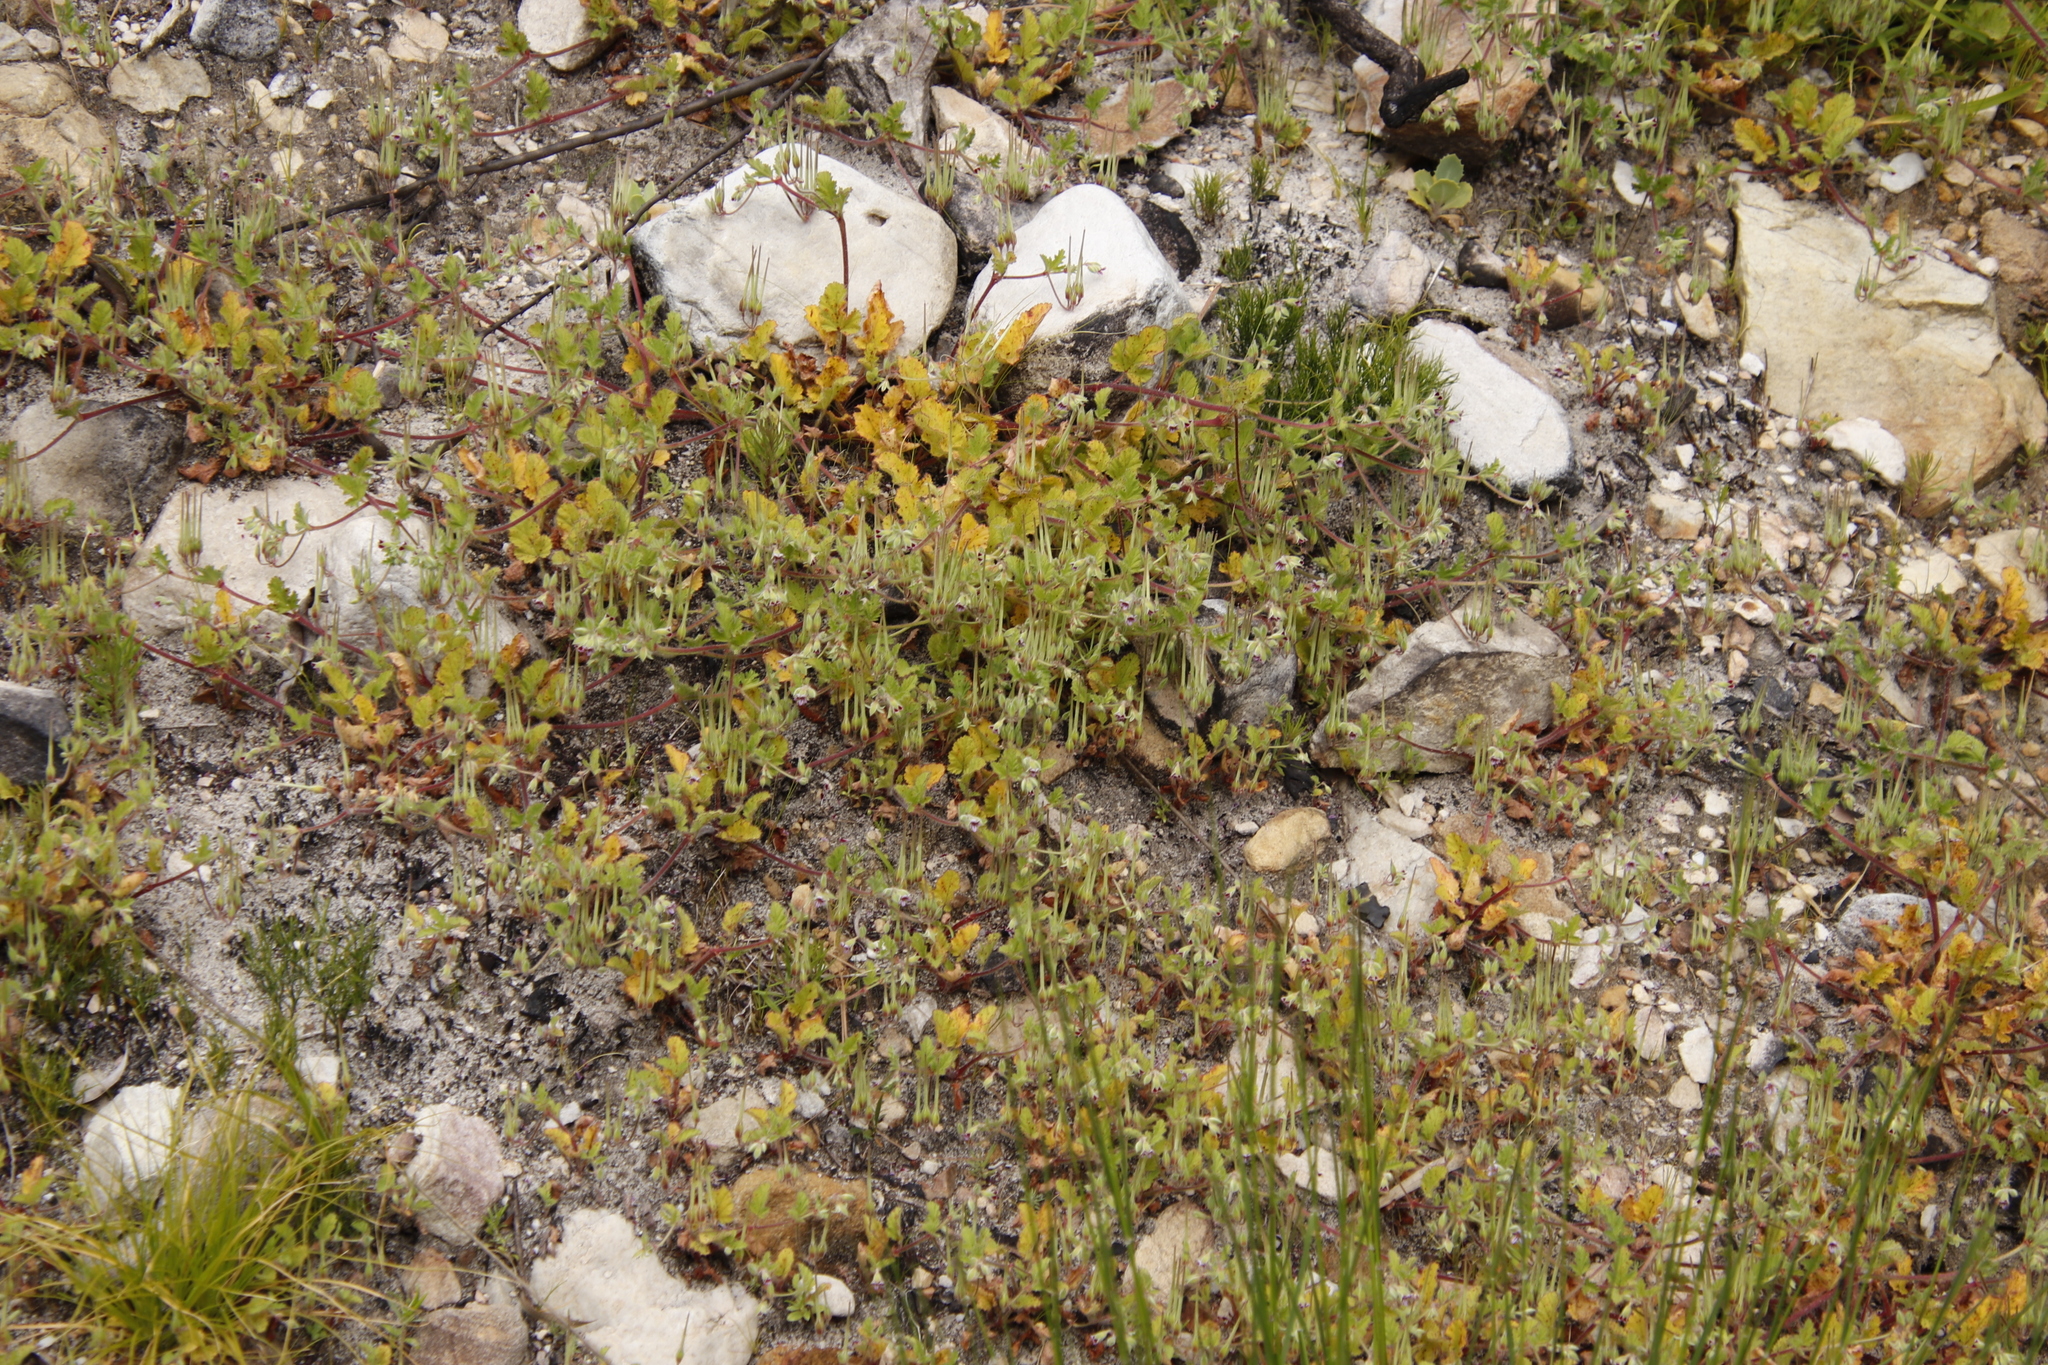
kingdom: Plantae
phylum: Tracheophyta
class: Magnoliopsida
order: Geraniales
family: Geraniaceae
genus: Pelargonium
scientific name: Pelargonium althaeoides
